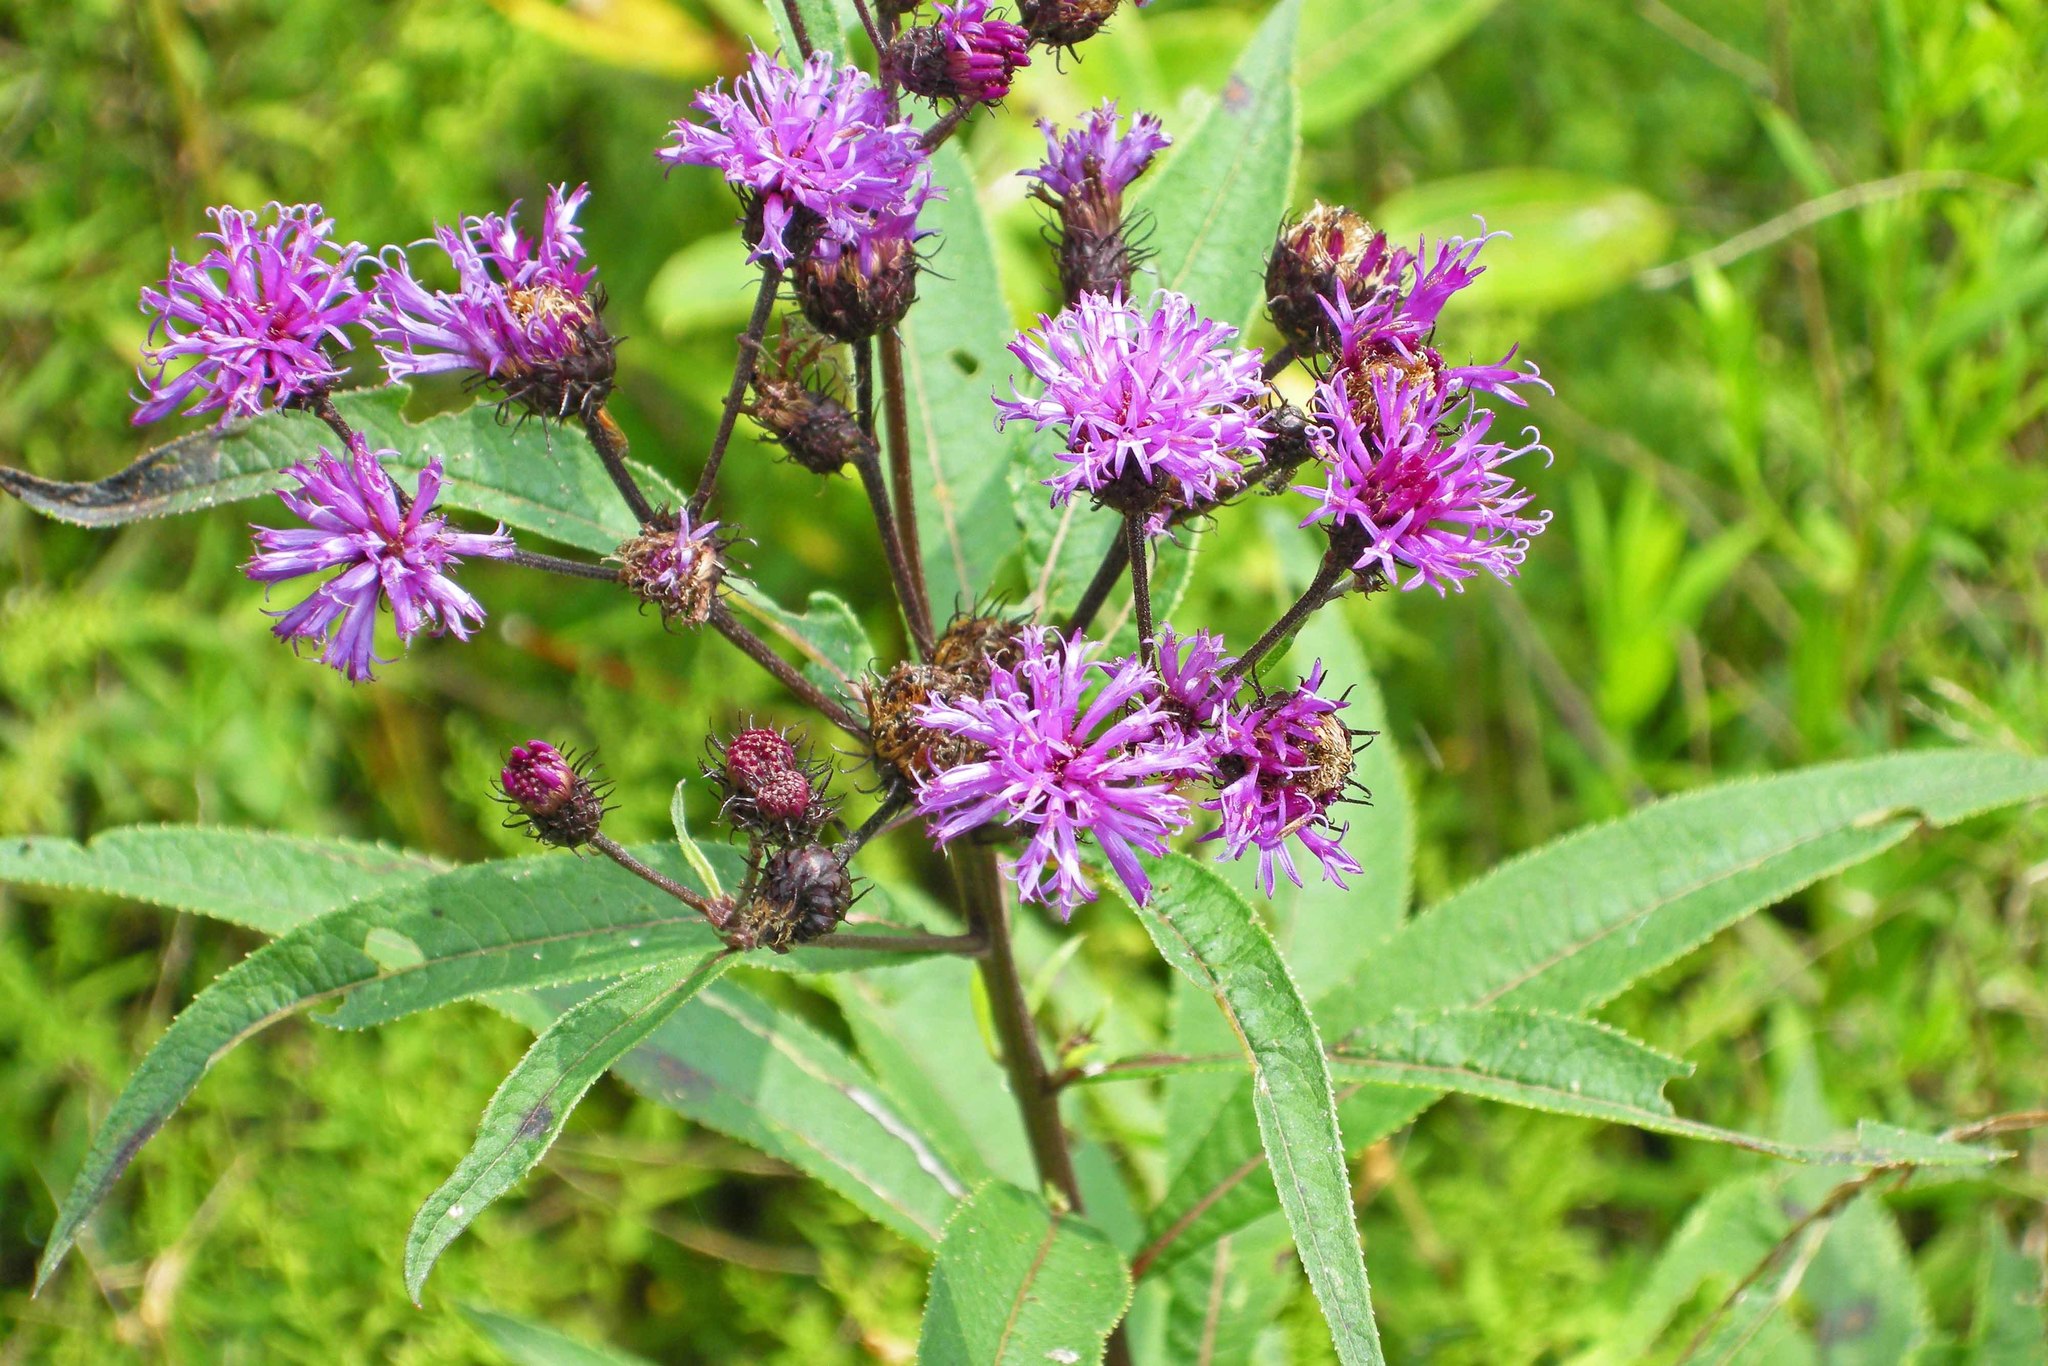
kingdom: Plantae
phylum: Tracheophyta
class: Magnoliopsida
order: Asterales
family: Asteraceae
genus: Vernonia
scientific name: Vernonia noveboracensis
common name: New york ironweed
